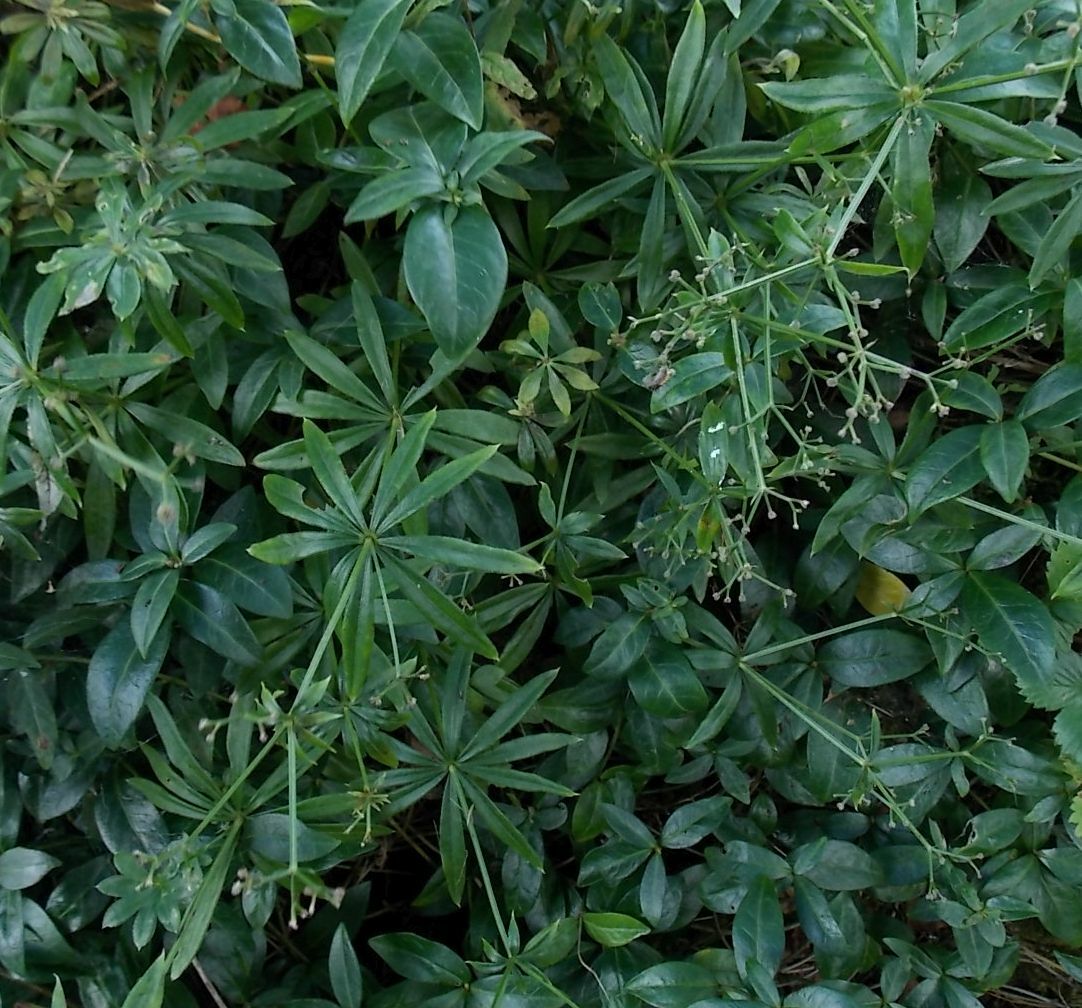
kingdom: Plantae
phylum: Tracheophyta
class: Magnoliopsida
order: Gentianales
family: Rubiaceae
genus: Galium
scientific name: Galium odoratum
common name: Sweet woodruff
